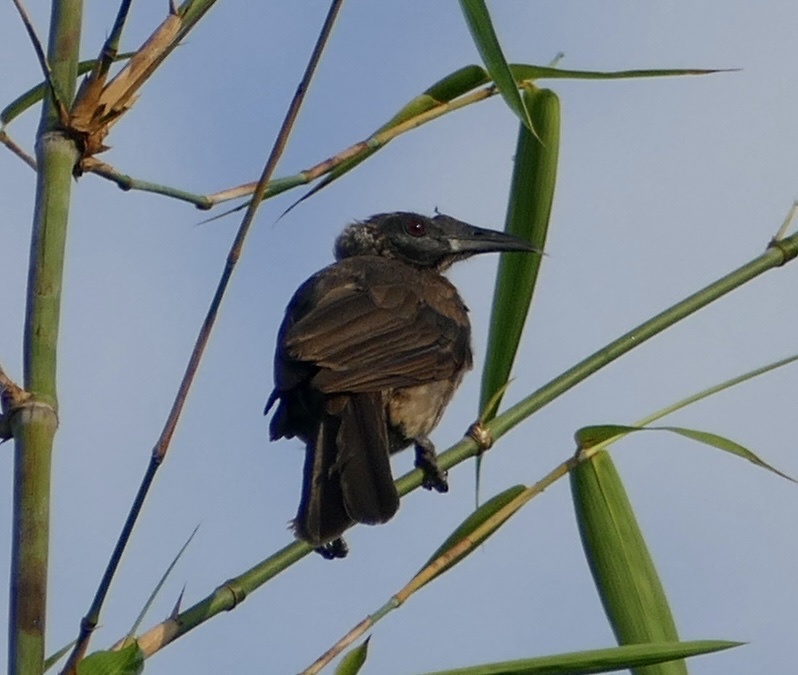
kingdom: Animalia
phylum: Chordata
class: Aves
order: Passeriformes
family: Meliphagidae
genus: Philemon
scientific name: Philemon buceroides
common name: Helmeted friarbird
